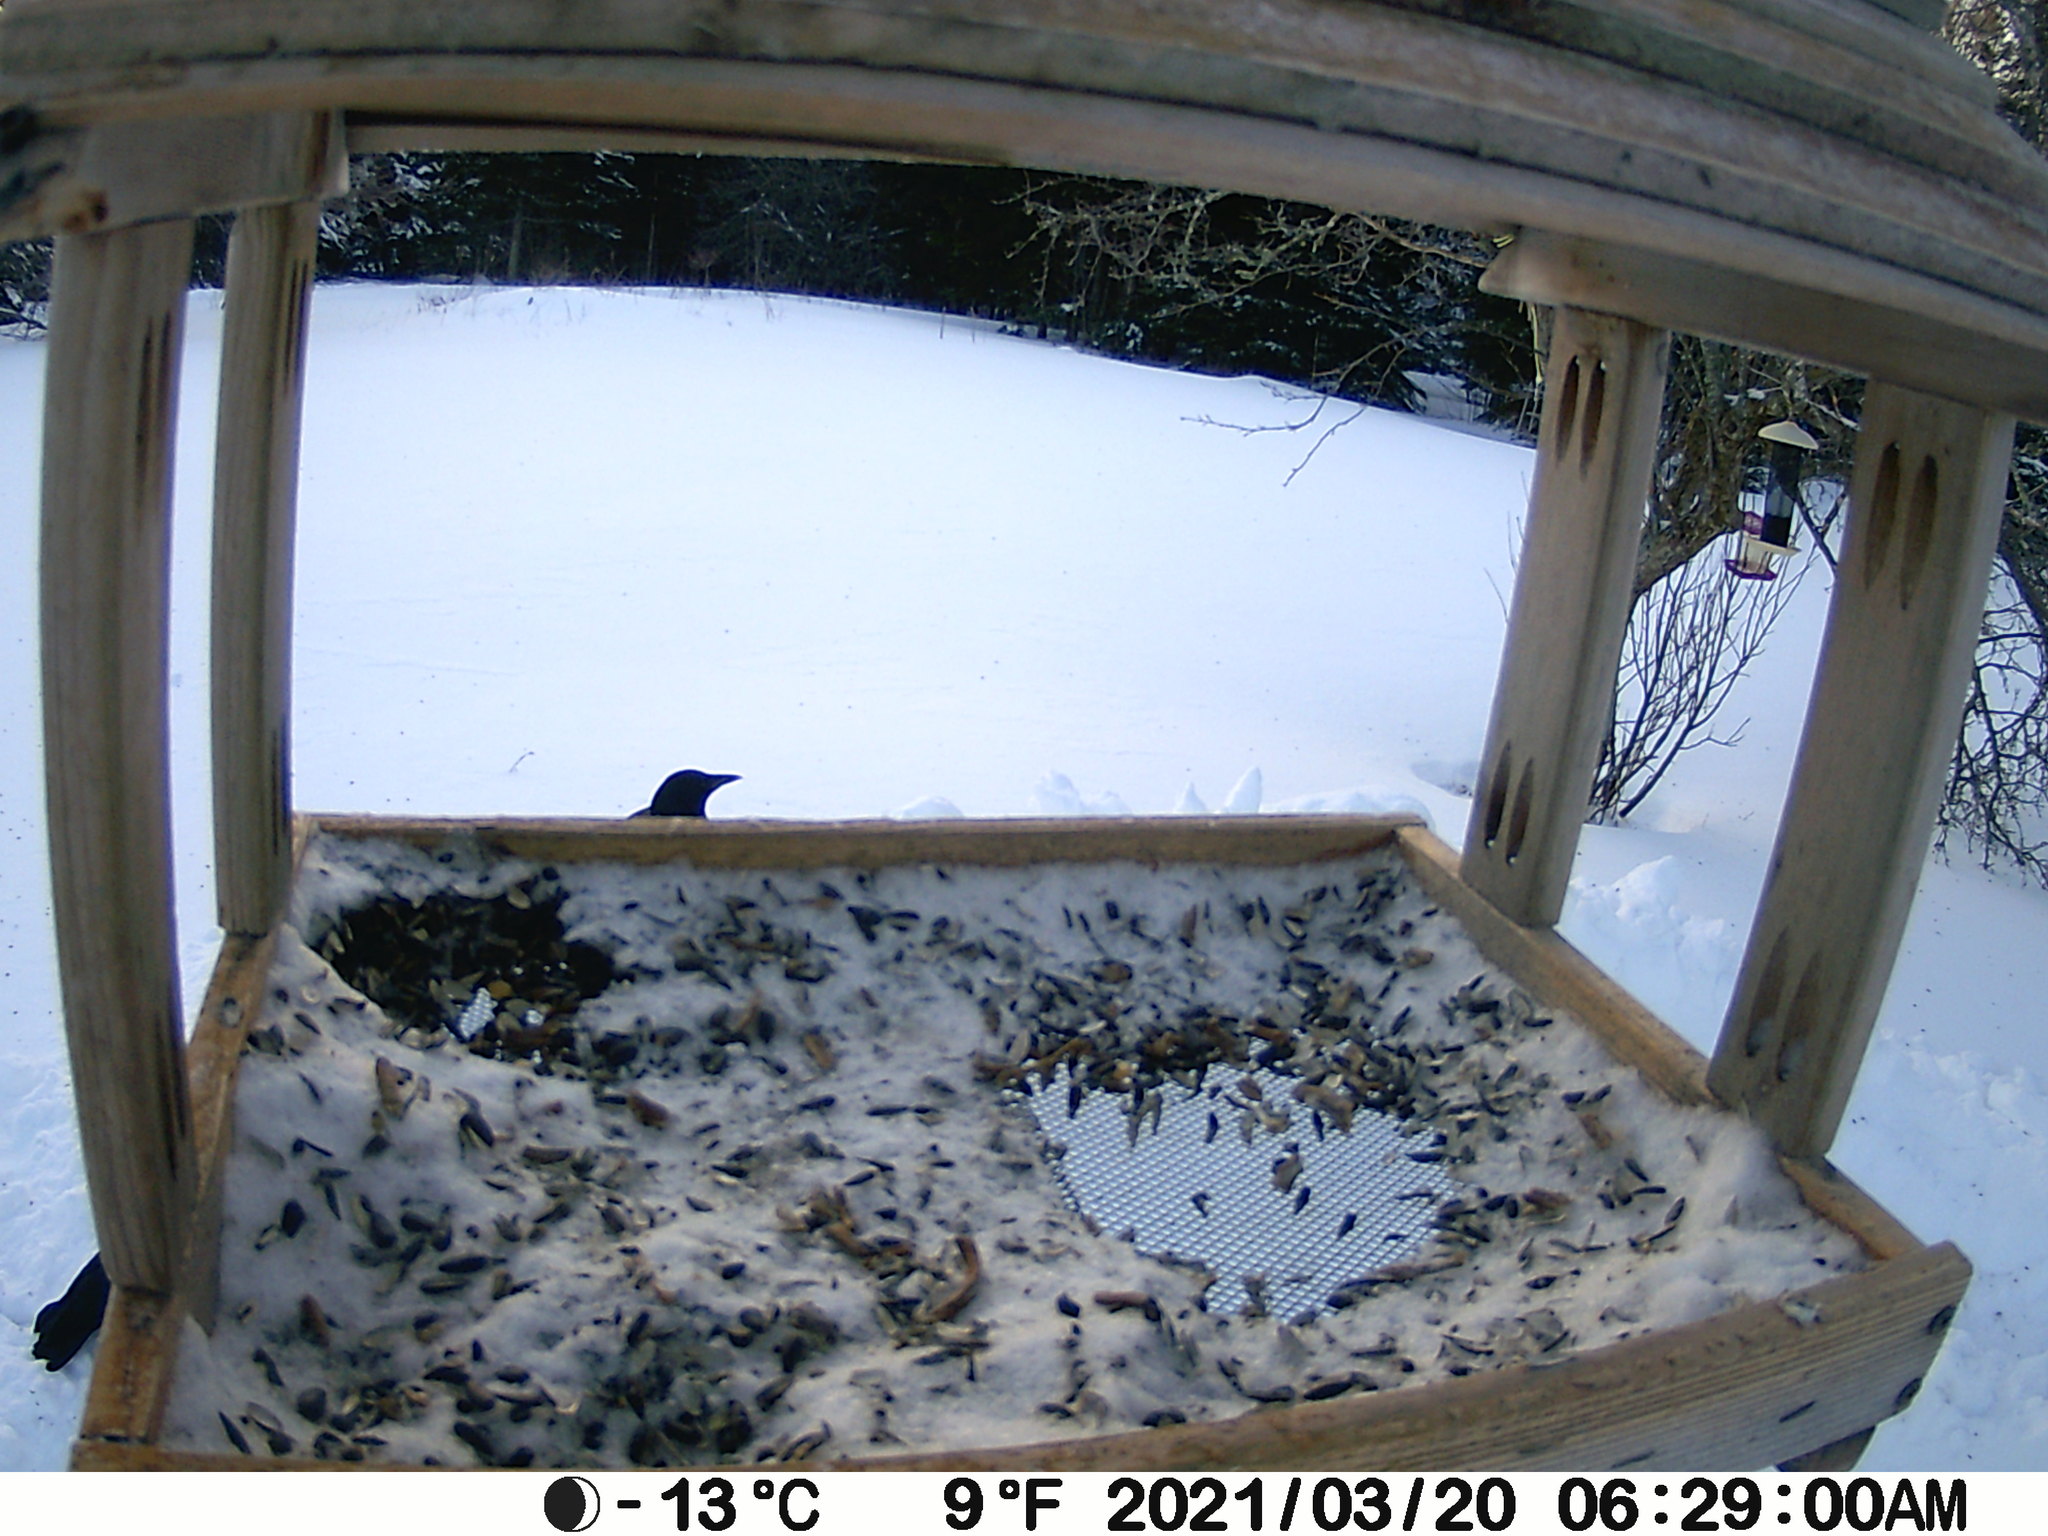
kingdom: Animalia
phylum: Chordata
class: Aves
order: Passeriformes
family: Corvidae
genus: Corvus
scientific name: Corvus brachyrhynchos
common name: American crow
